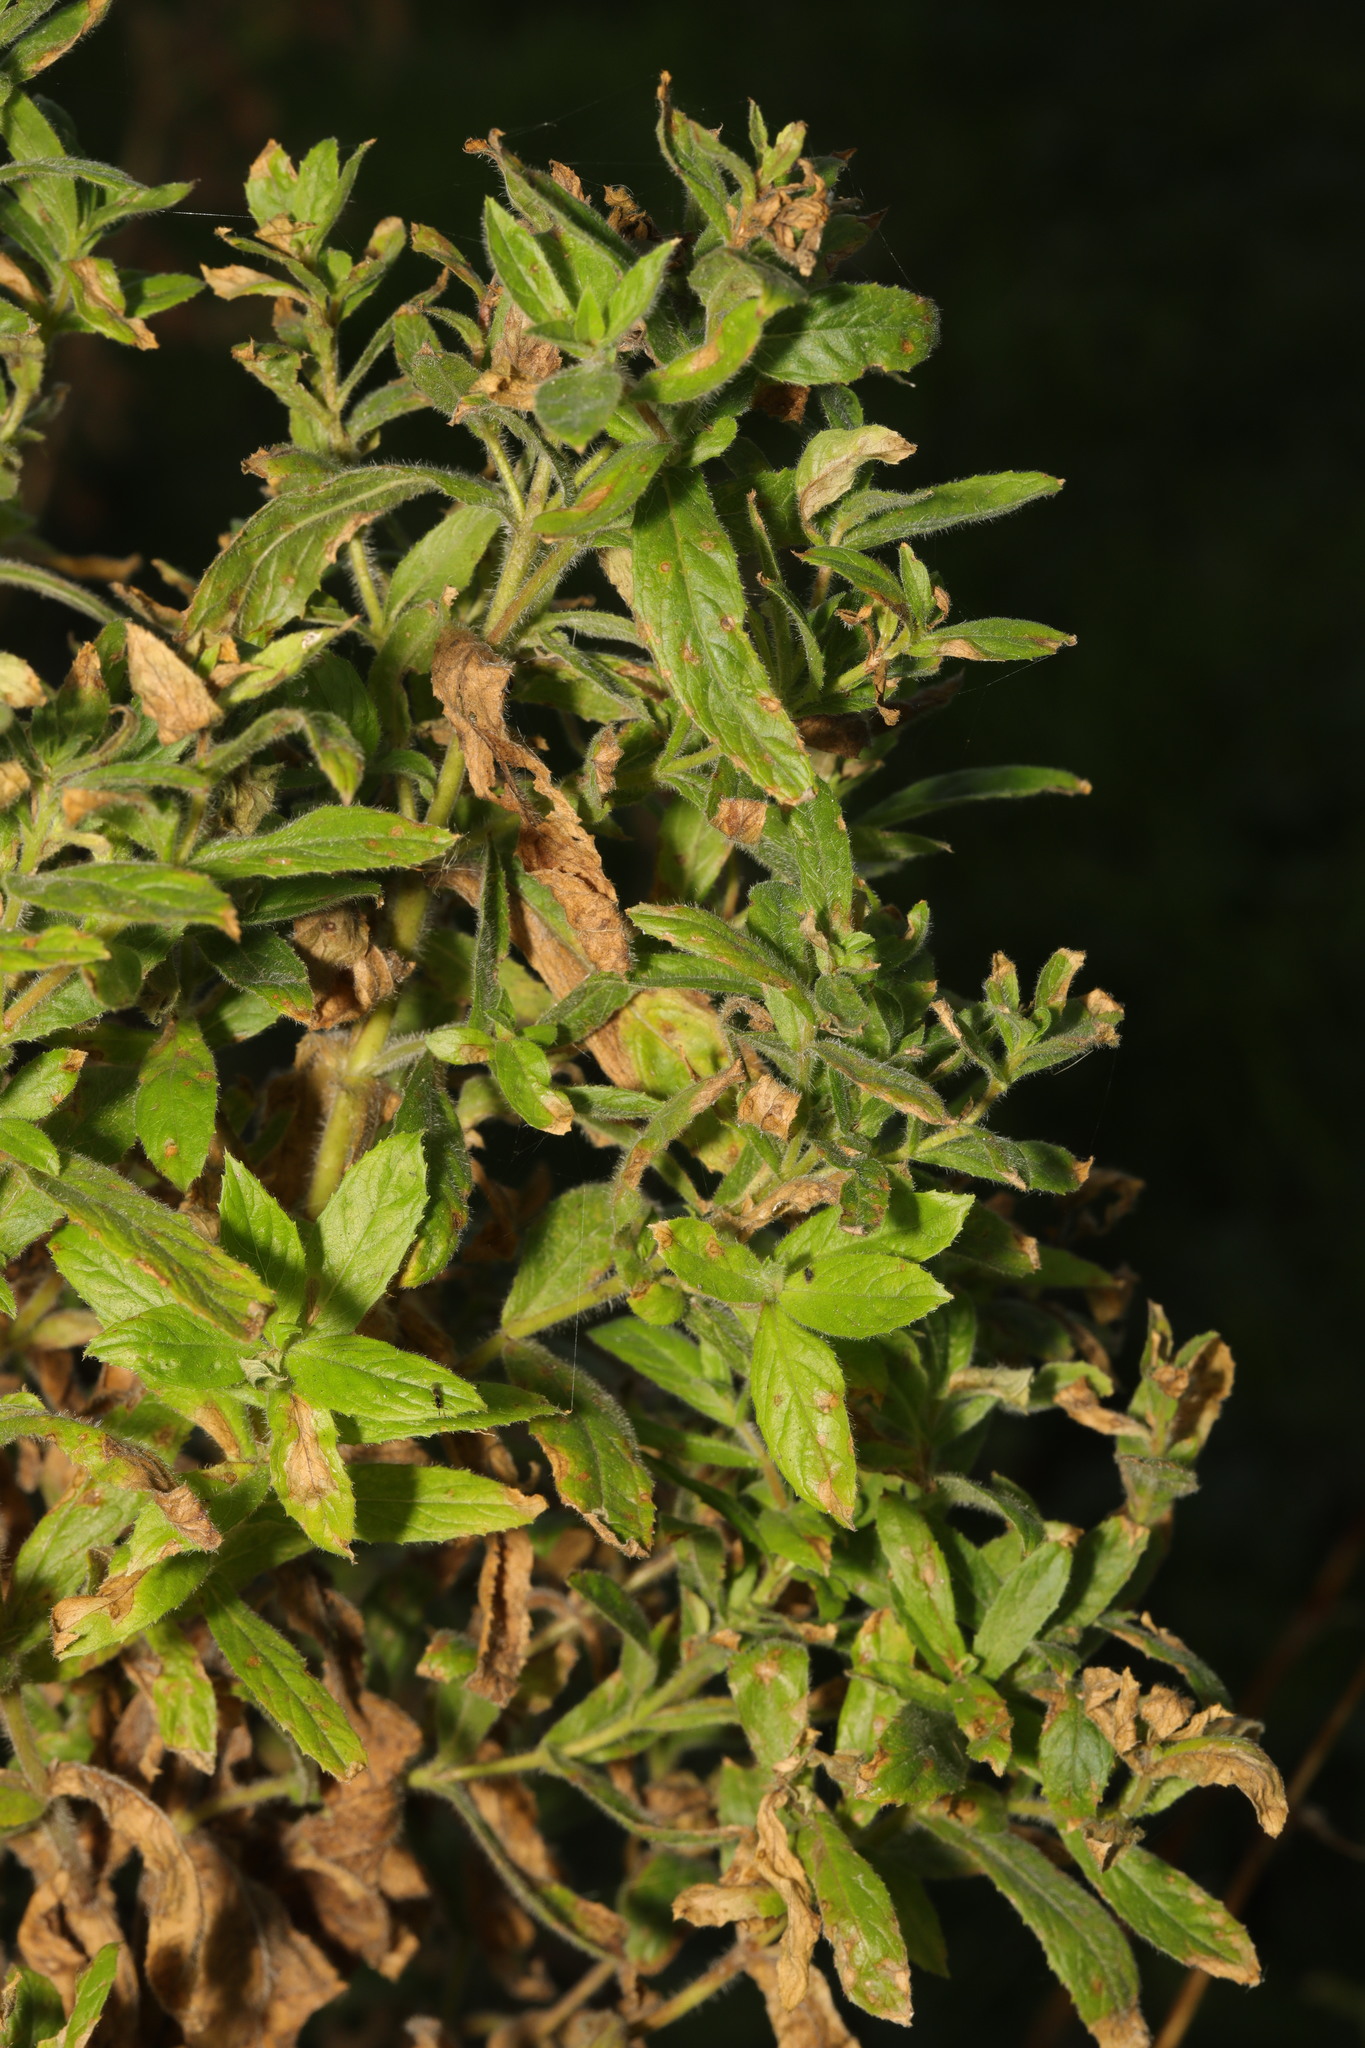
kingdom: Plantae
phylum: Tracheophyta
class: Magnoliopsida
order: Myrtales
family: Onagraceae
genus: Epilobium
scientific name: Epilobium hirsutum
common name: Great willowherb
